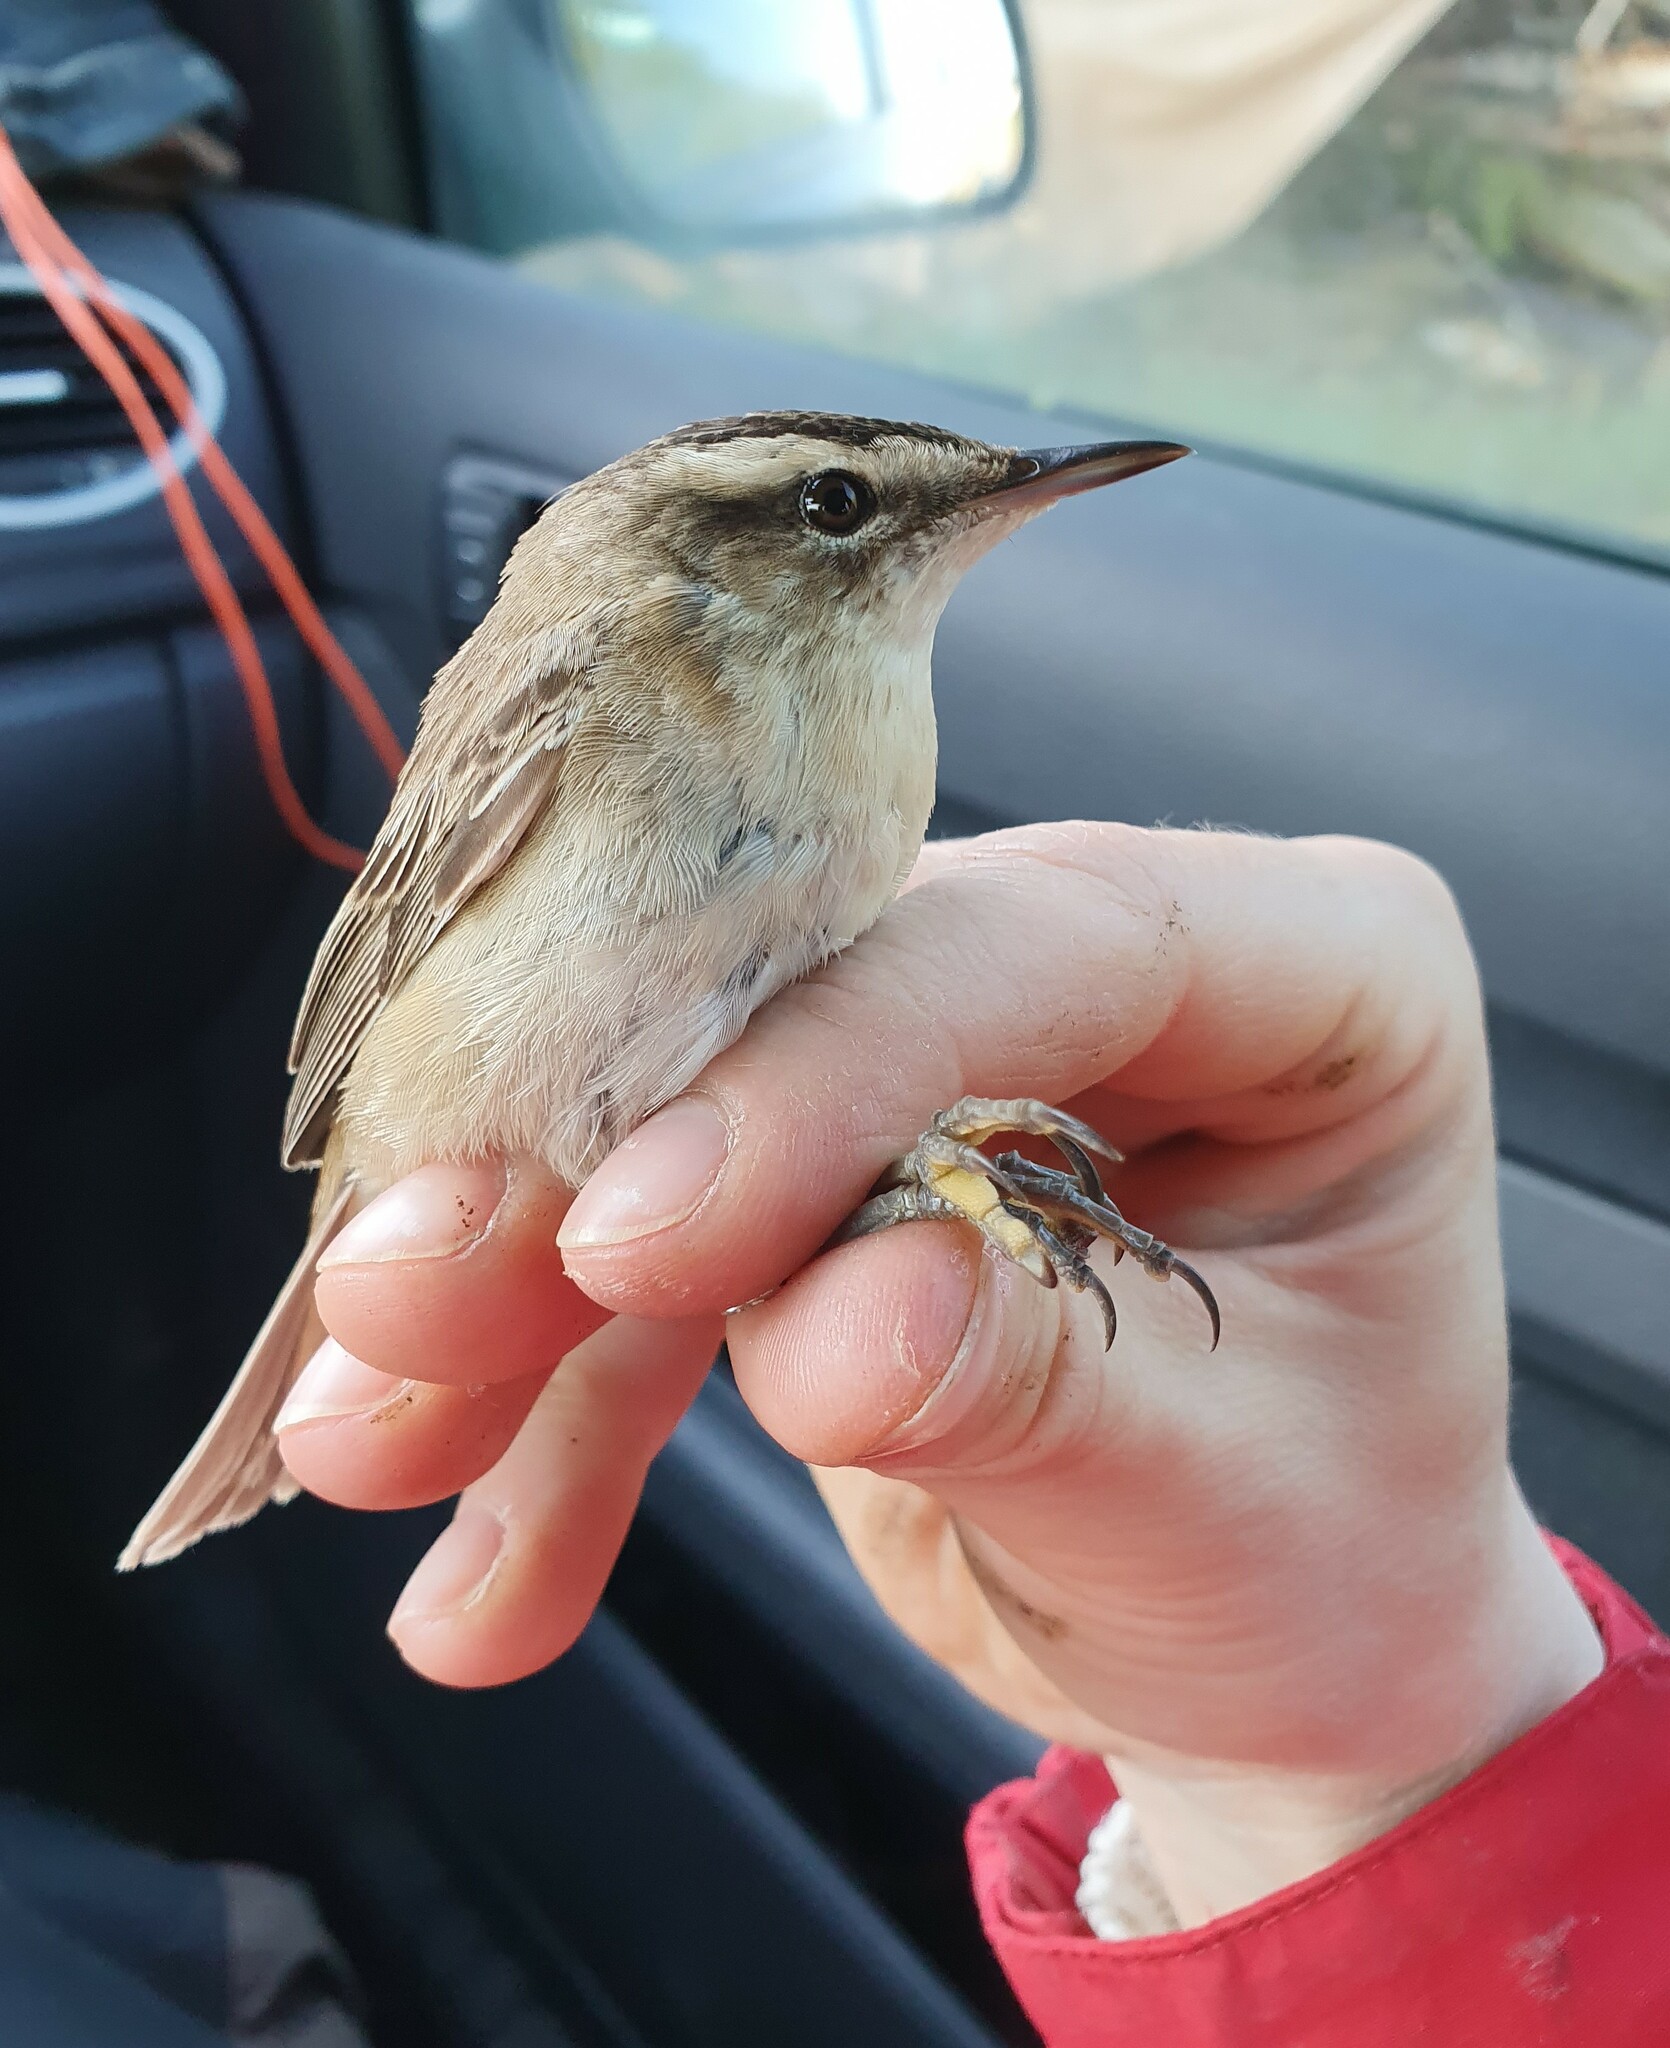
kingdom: Animalia
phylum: Chordata
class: Aves
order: Passeriformes
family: Acrocephalidae
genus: Acrocephalus
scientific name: Acrocephalus schoenobaenus
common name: Sedge warbler
